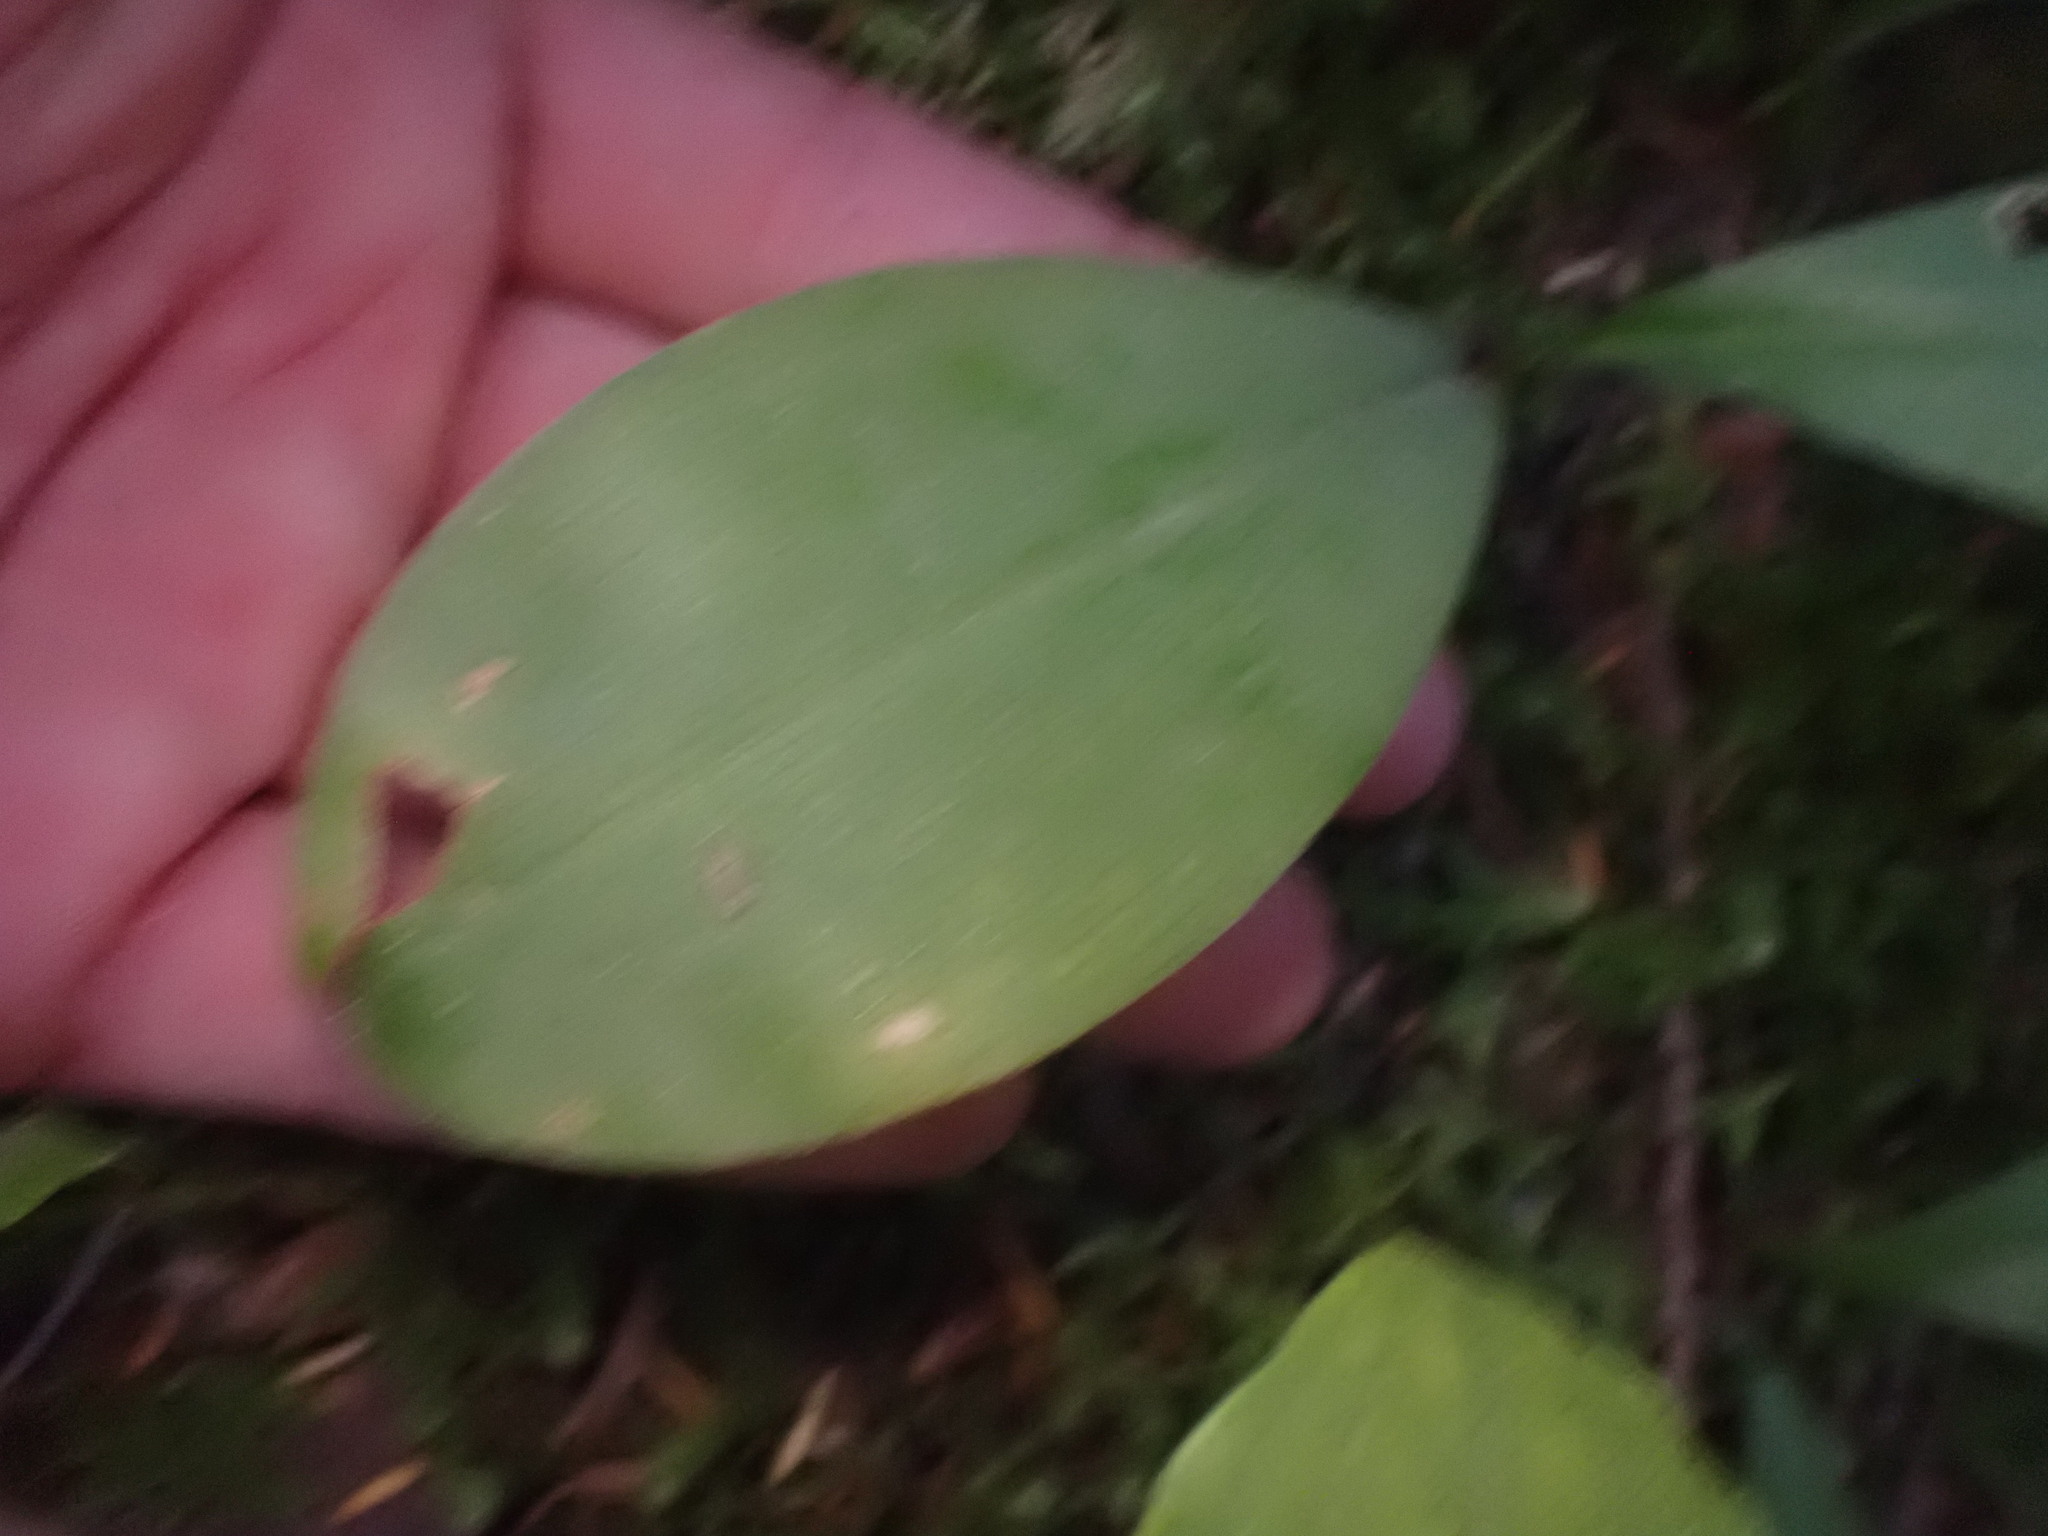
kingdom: Plantae
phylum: Tracheophyta
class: Liliopsida
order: Liliales
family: Liliaceae
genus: Clintonia
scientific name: Clintonia uniflora
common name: Queen's cup
